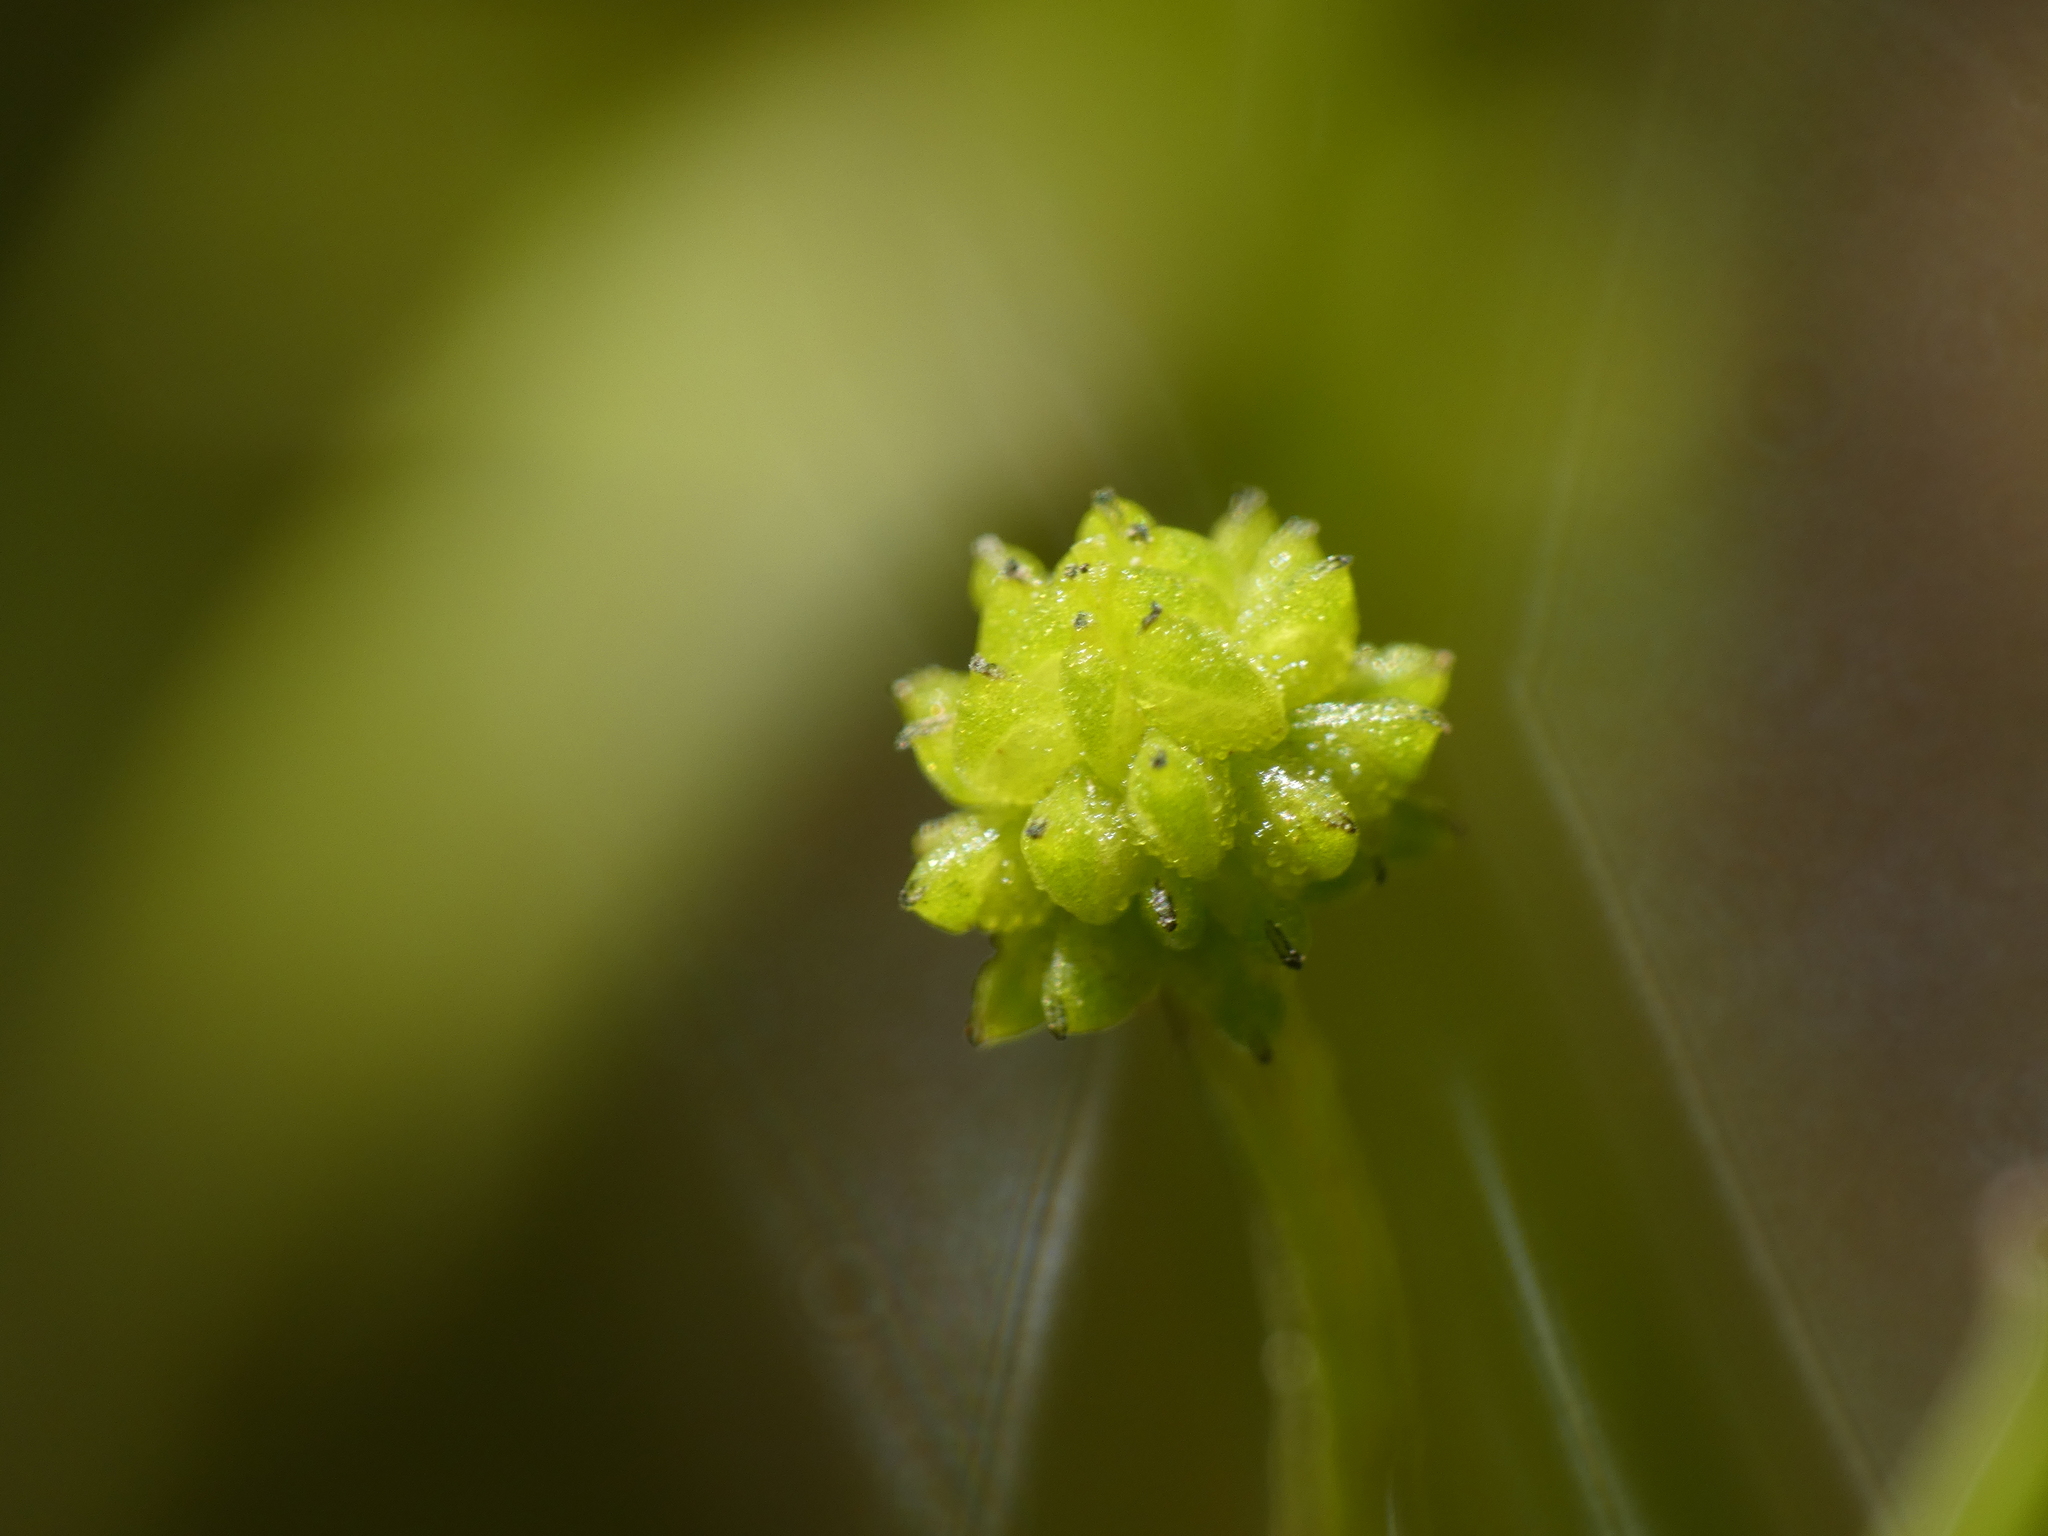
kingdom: Plantae
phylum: Tracheophyta
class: Magnoliopsida
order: Ranunculales
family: Ranunculaceae
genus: Ranunculus
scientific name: Ranunculus ophioglossifolius
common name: Adder's-tongue spearwort
